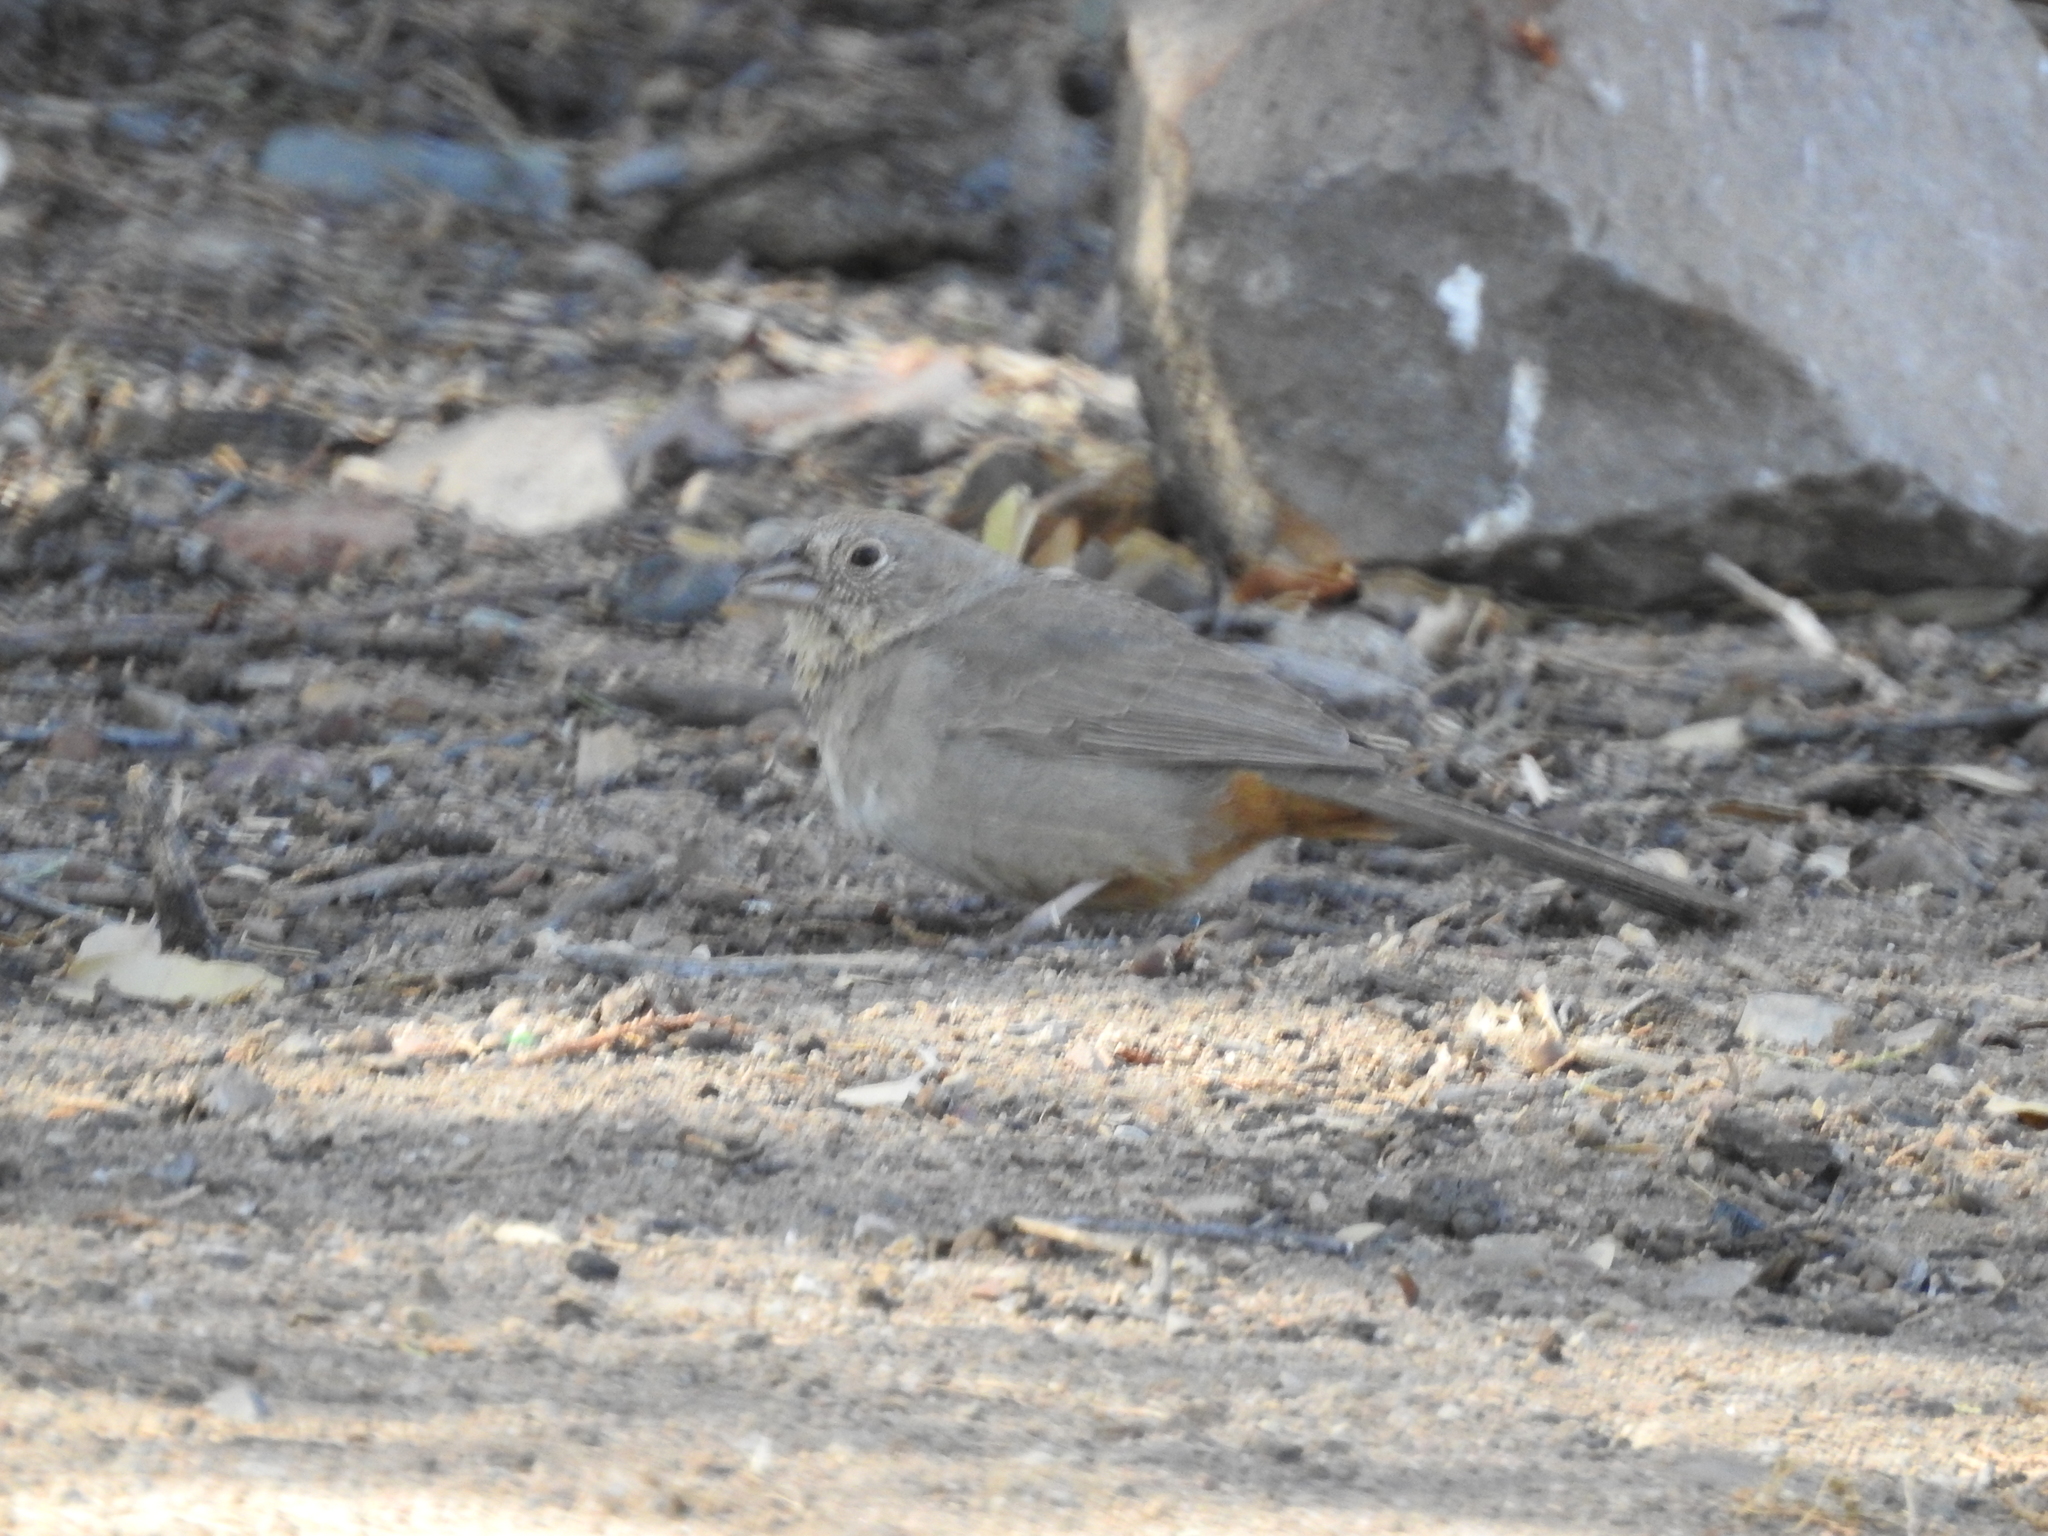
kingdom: Animalia
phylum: Chordata
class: Aves
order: Passeriformes
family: Passerellidae
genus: Melozone
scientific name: Melozone fusca
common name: Canyon towhee
